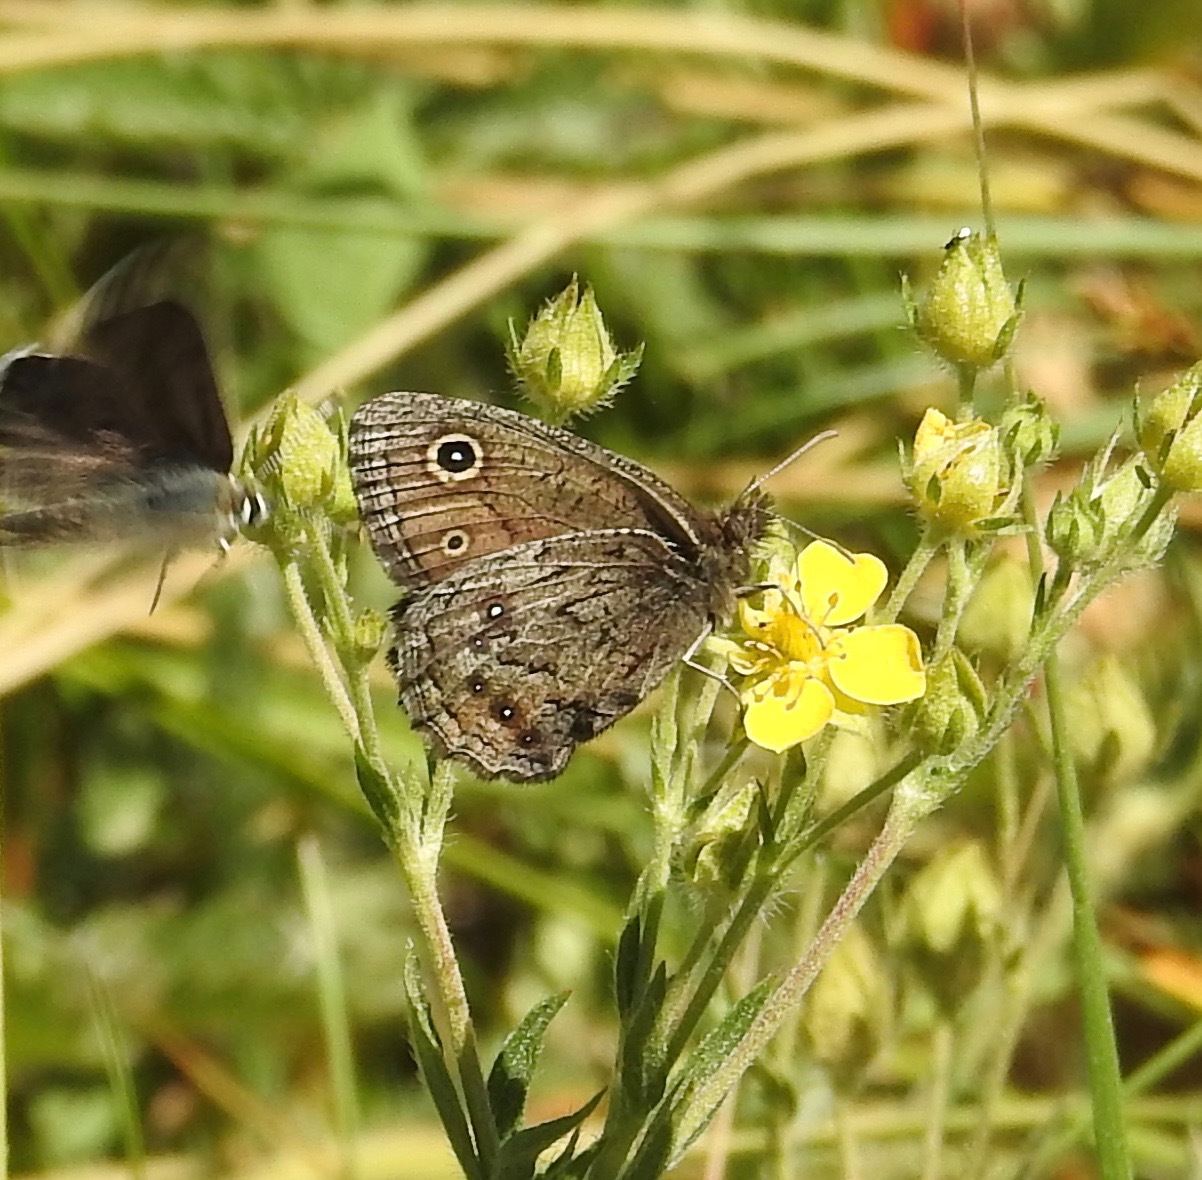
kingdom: Animalia
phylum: Arthropoda
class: Insecta
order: Lepidoptera
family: Nymphalidae
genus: Cercyonis
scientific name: Cercyonis oetus
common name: Small wood-nymph
